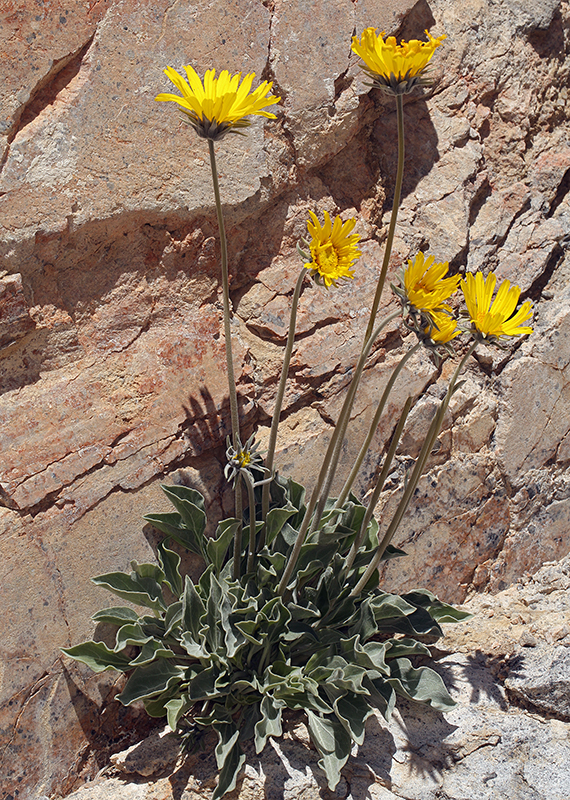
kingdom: Plantae
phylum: Tracheophyta
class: Magnoliopsida
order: Asterales
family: Asteraceae
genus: Enceliopsis
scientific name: Enceliopsis nudicaulis
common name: Naked-stem daisy
